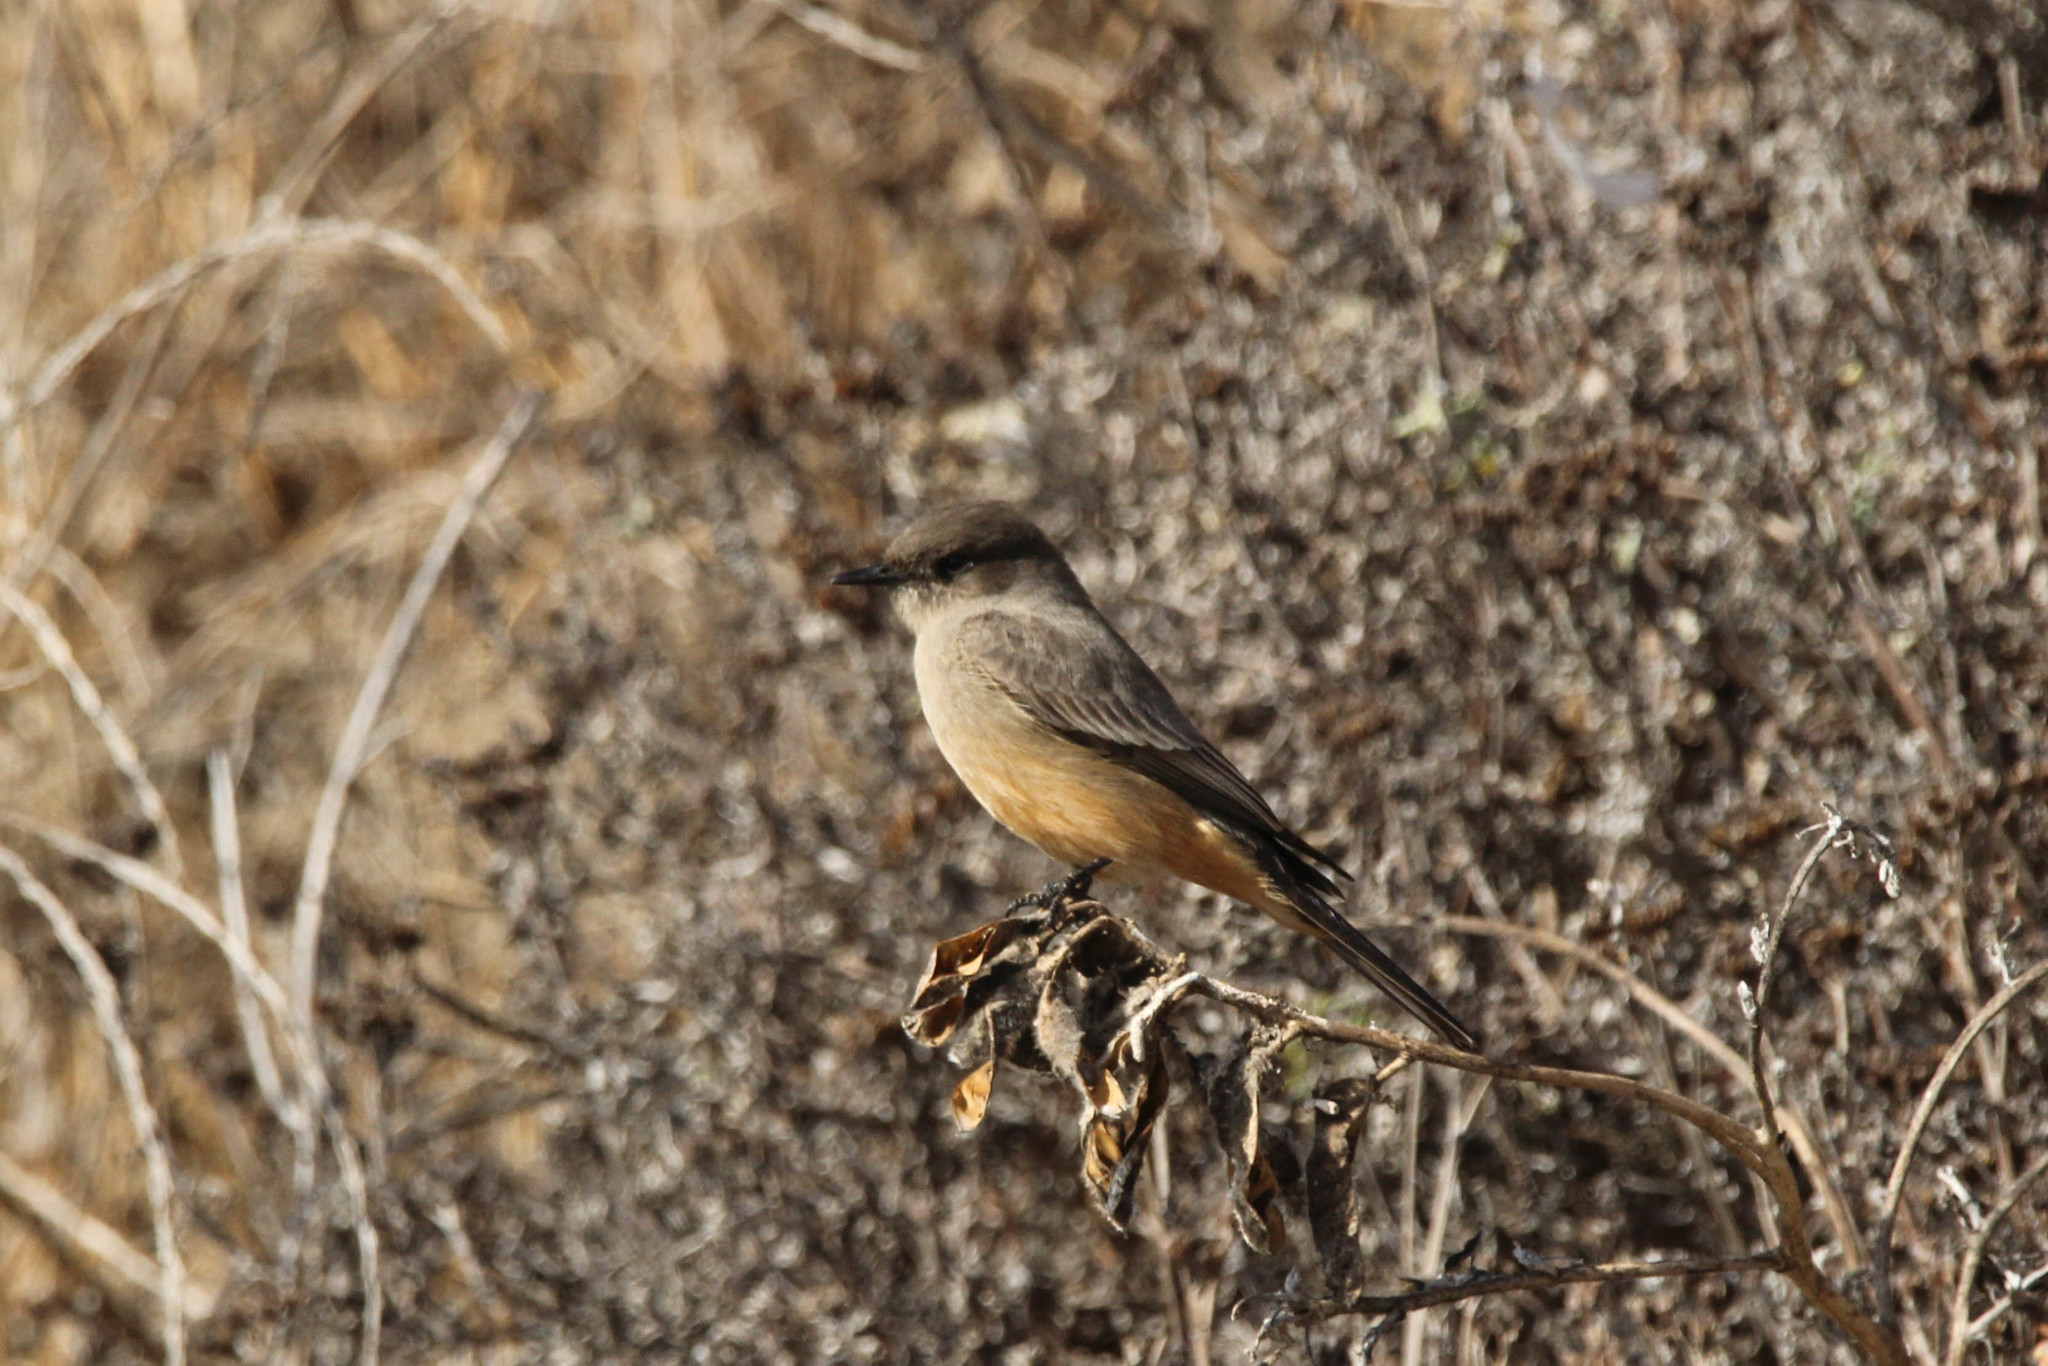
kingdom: Animalia
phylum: Chordata
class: Aves
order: Passeriformes
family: Tyrannidae
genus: Sayornis
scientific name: Sayornis saya
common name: Say's phoebe
